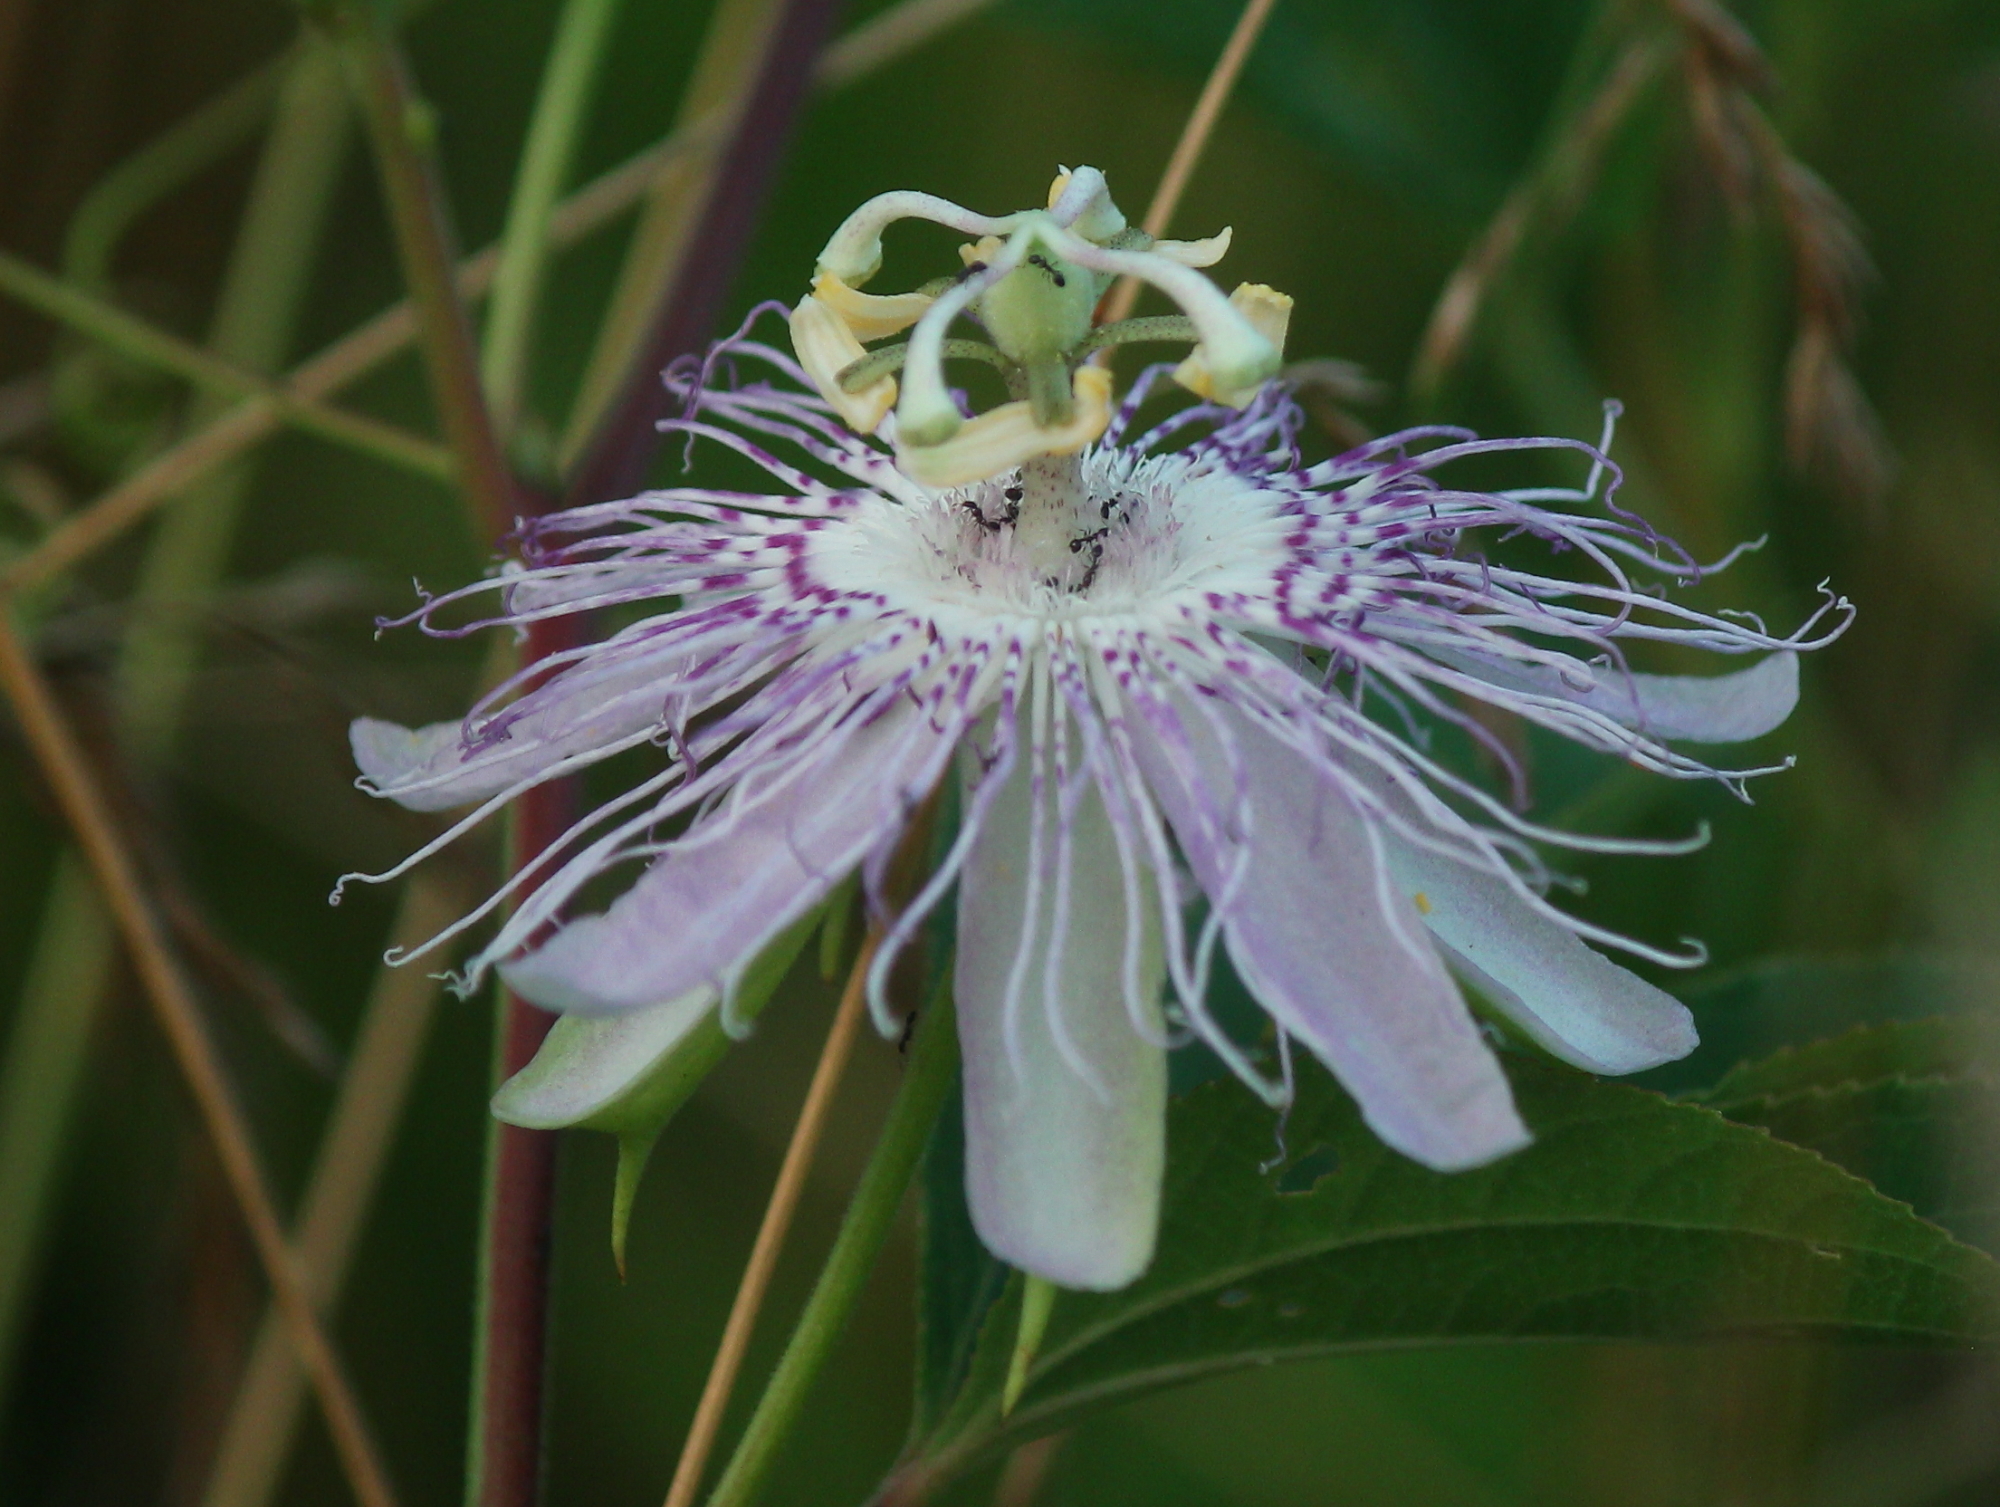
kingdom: Plantae
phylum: Tracheophyta
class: Magnoliopsida
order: Malpighiales
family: Passifloraceae
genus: Passiflora
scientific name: Passiflora incarnata
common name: Apricot-vine
